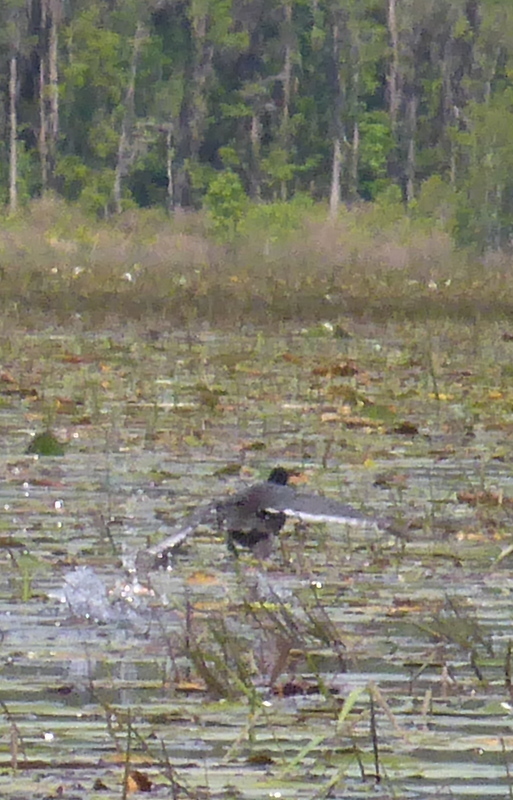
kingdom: Animalia
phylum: Chordata
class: Aves
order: Gruiformes
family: Rallidae
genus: Fulica
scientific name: Fulica americana
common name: American coot
